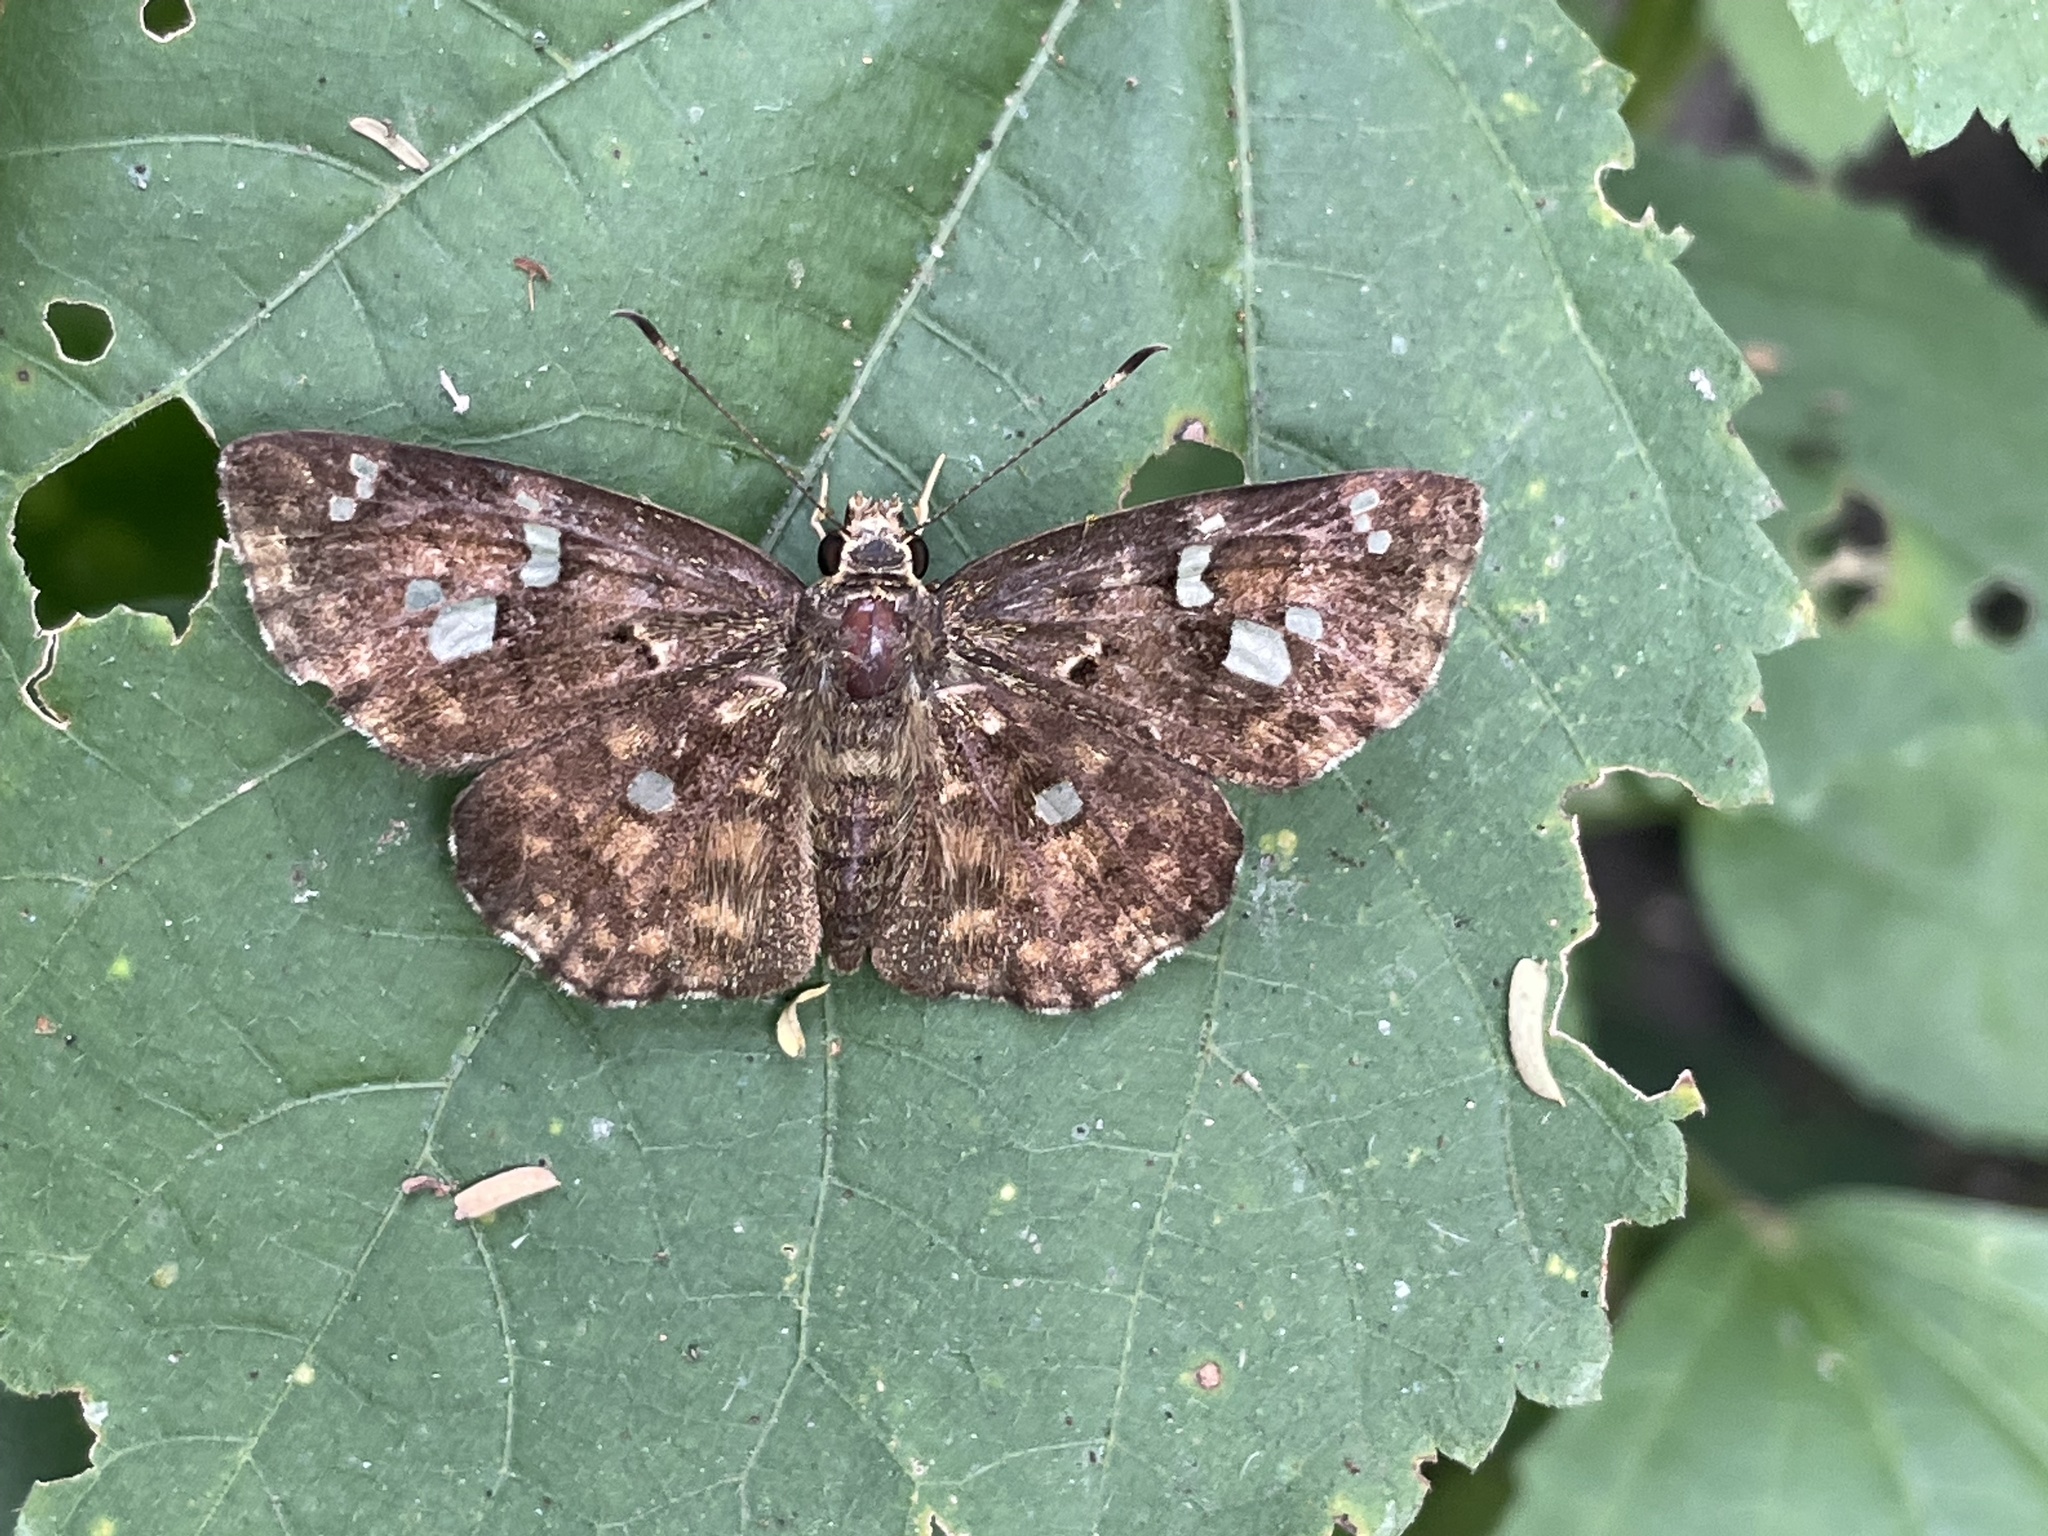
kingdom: Animalia
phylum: Arthropoda
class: Insecta
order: Lepidoptera
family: Hesperiidae
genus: Sarangesa
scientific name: Sarangesa motozi
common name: Forest elfin
